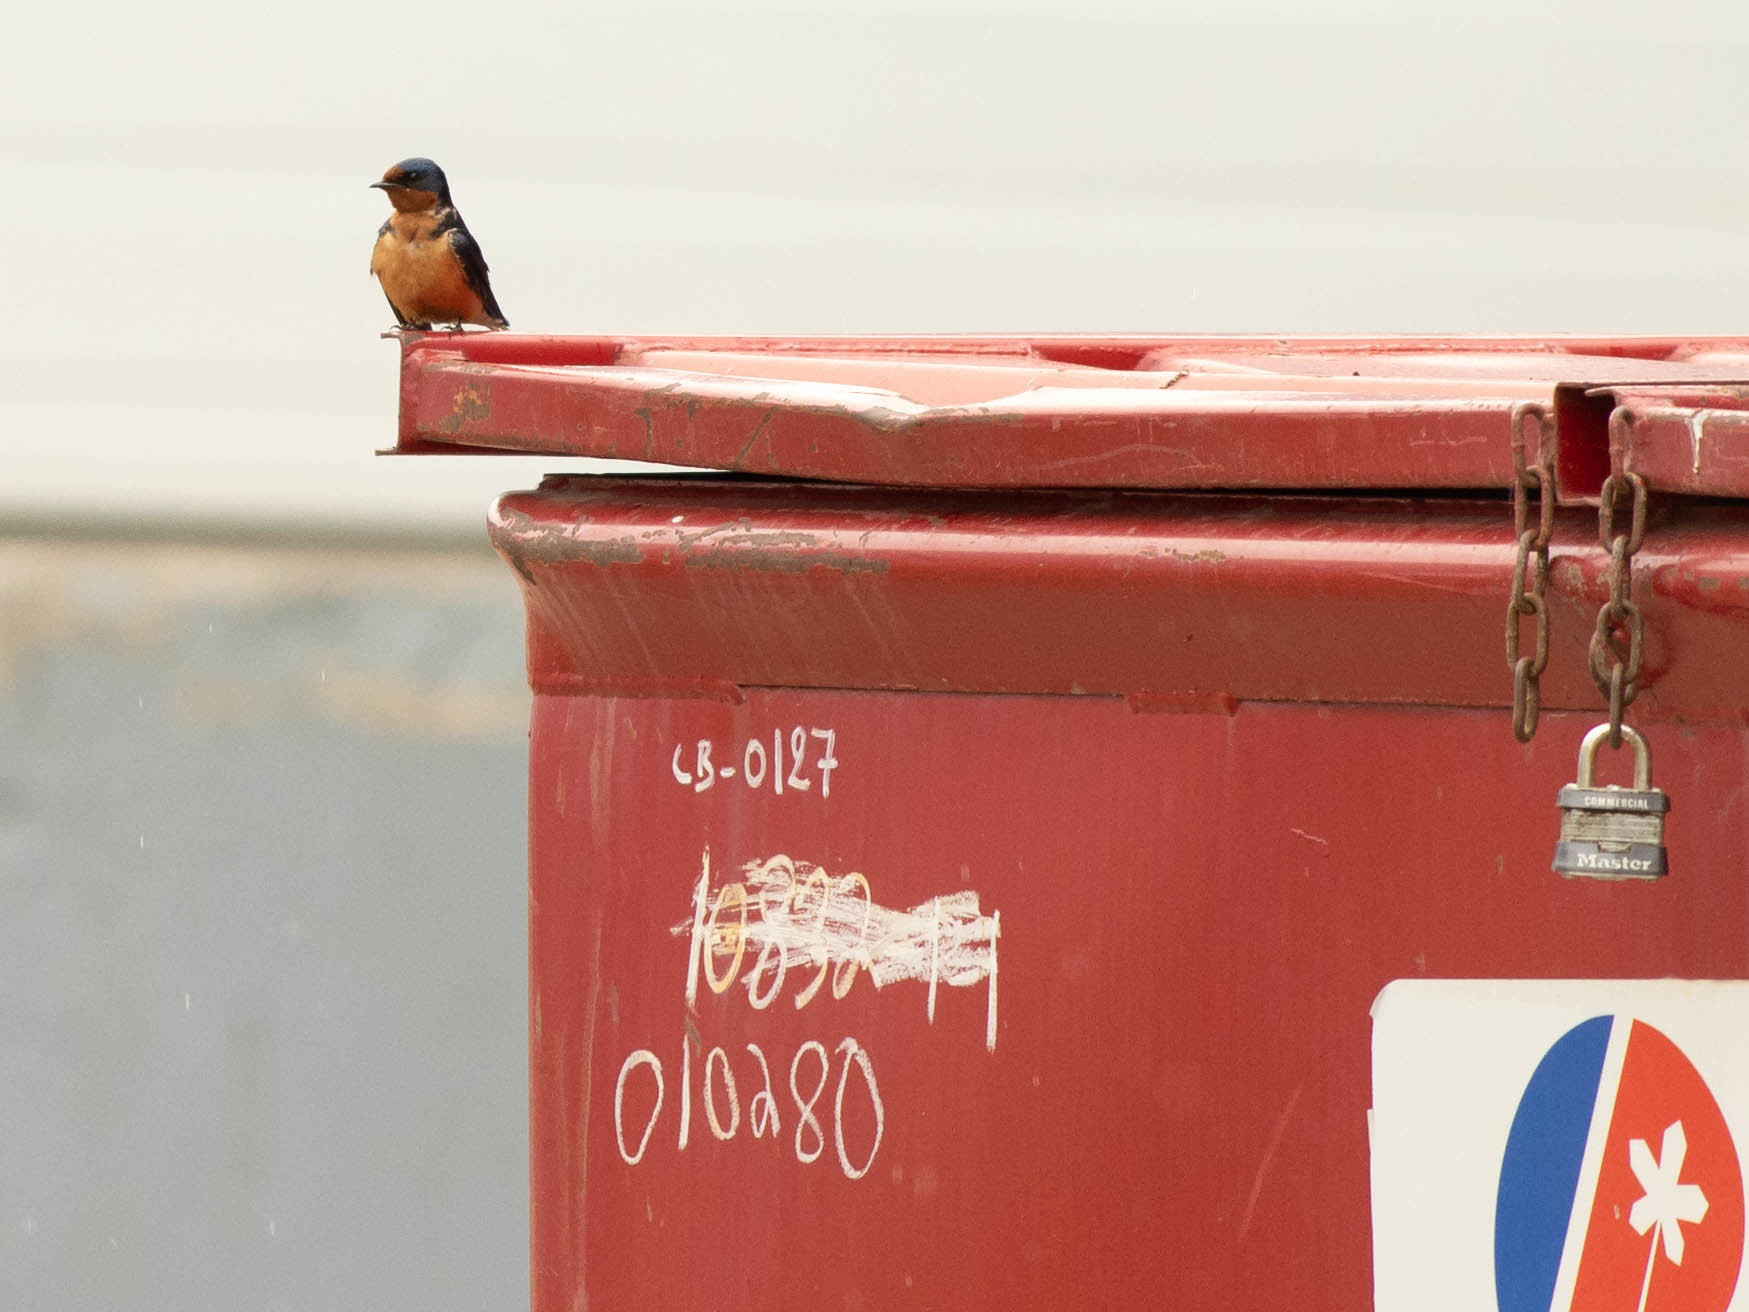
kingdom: Animalia
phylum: Chordata
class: Aves
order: Passeriformes
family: Hirundinidae
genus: Hirundo
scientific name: Hirundo rustica
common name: Barn swallow
